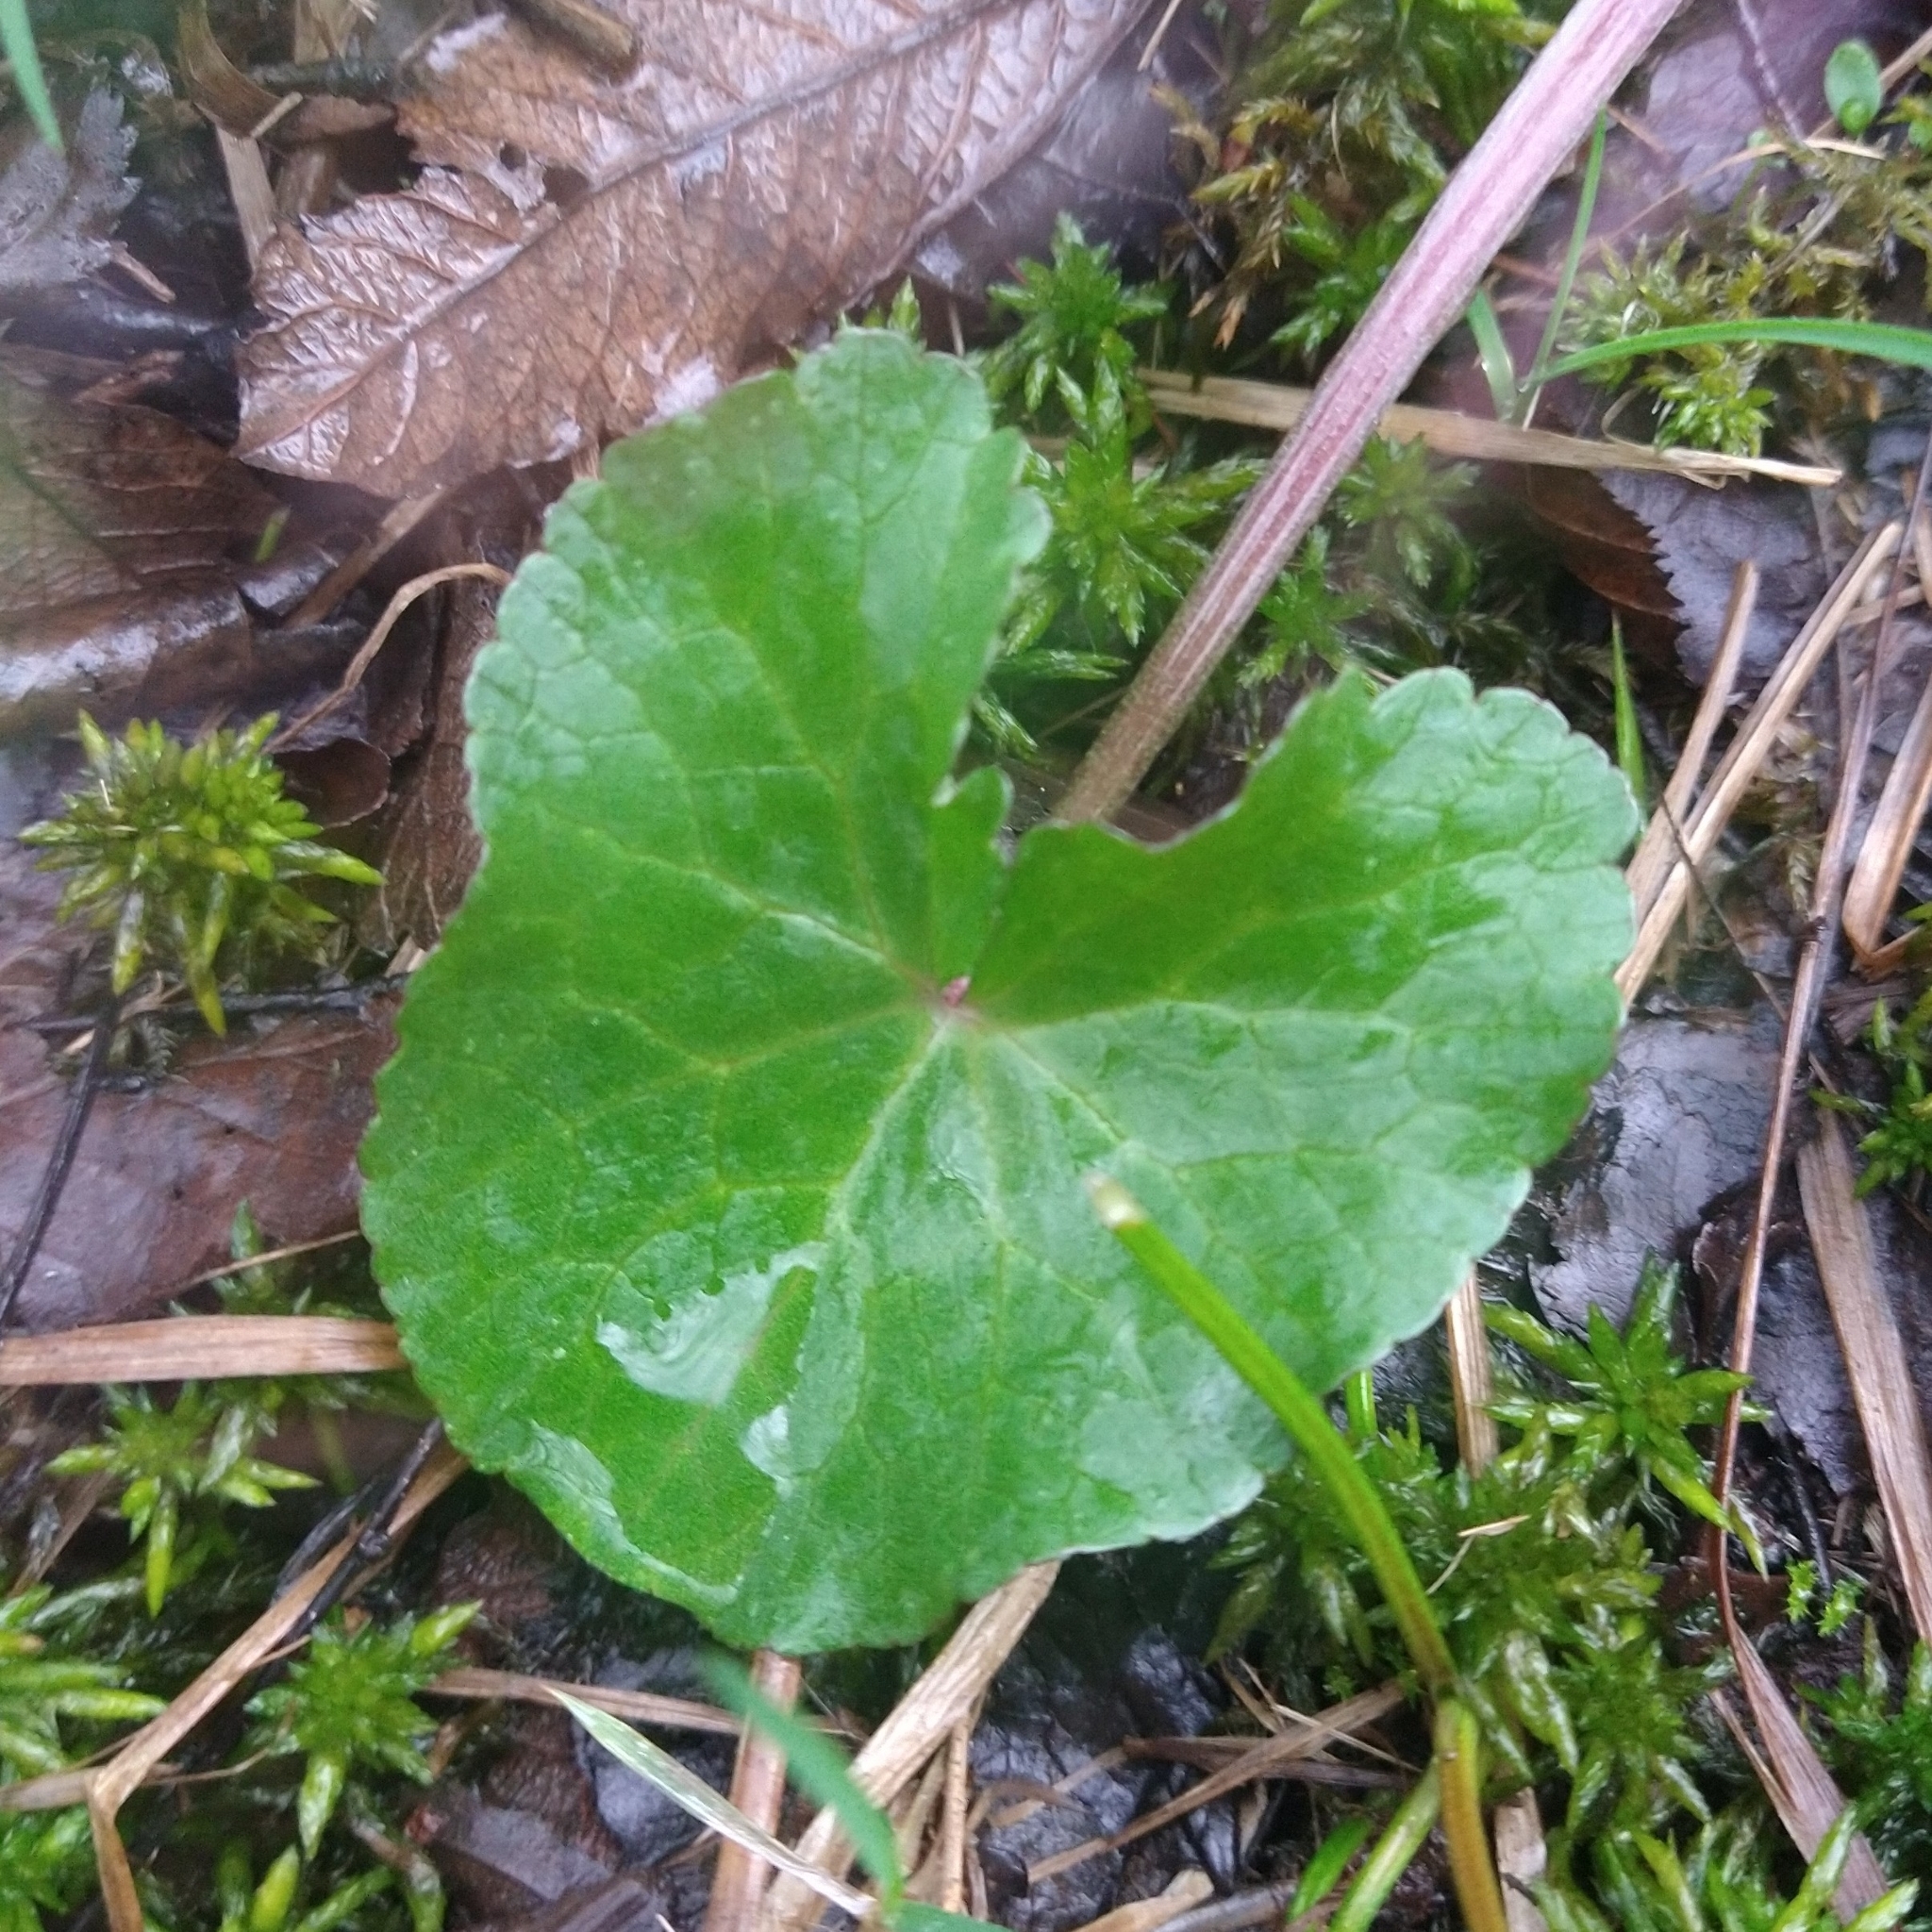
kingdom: Plantae
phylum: Tracheophyta
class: Magnoliopsida
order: Ranunculales
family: Ranunculaceae
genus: Caltha
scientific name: Caltha palustris
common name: Marsh marigold
